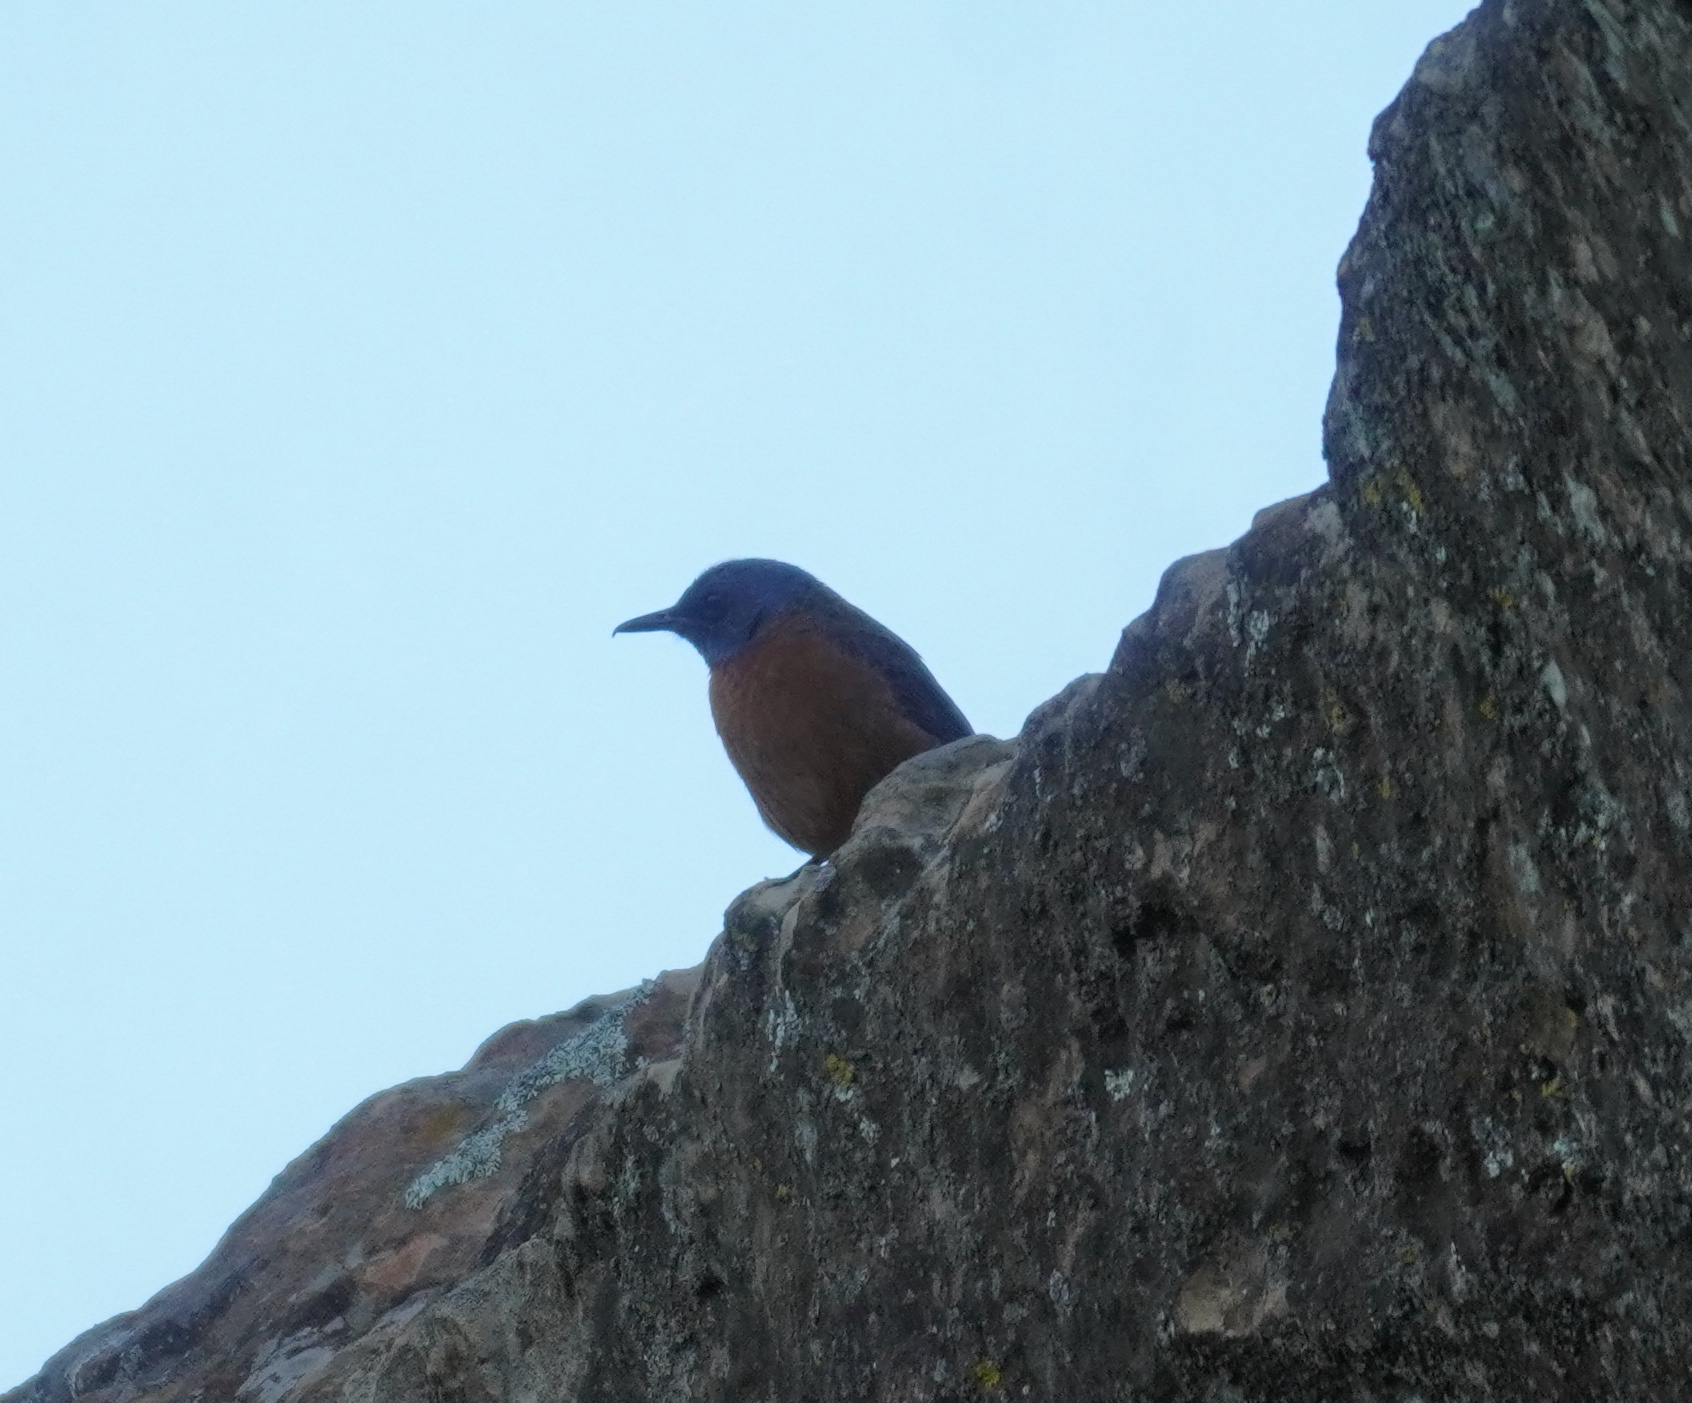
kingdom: Animalia
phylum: Chordata
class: Aves
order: Passeriformes
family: Muscicapidae
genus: Monticola
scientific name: Monticola rupestris
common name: Cape rock thrush
